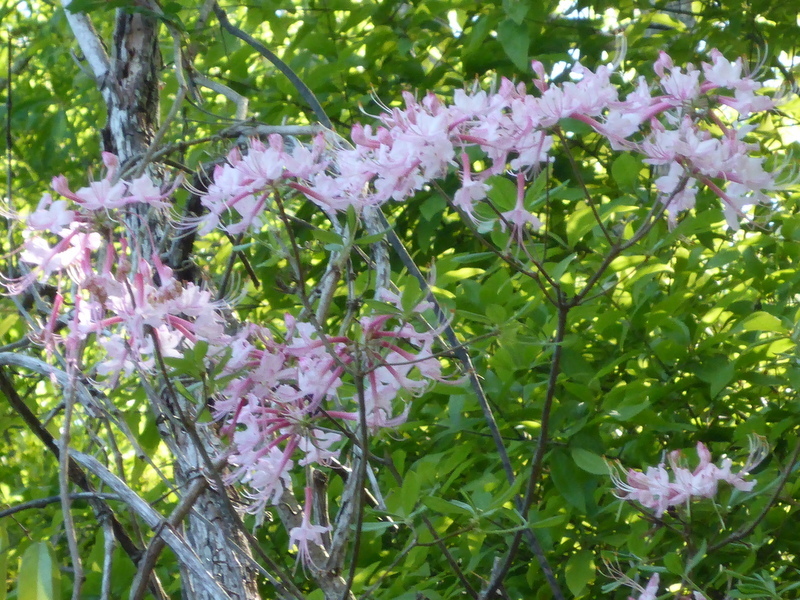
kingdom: Plantae
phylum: Tracheophyta
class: Magnoliopsida
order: Ericales
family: Ericaceae
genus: Rhododendron
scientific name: Rhododendron canescens
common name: Mountain azalea
